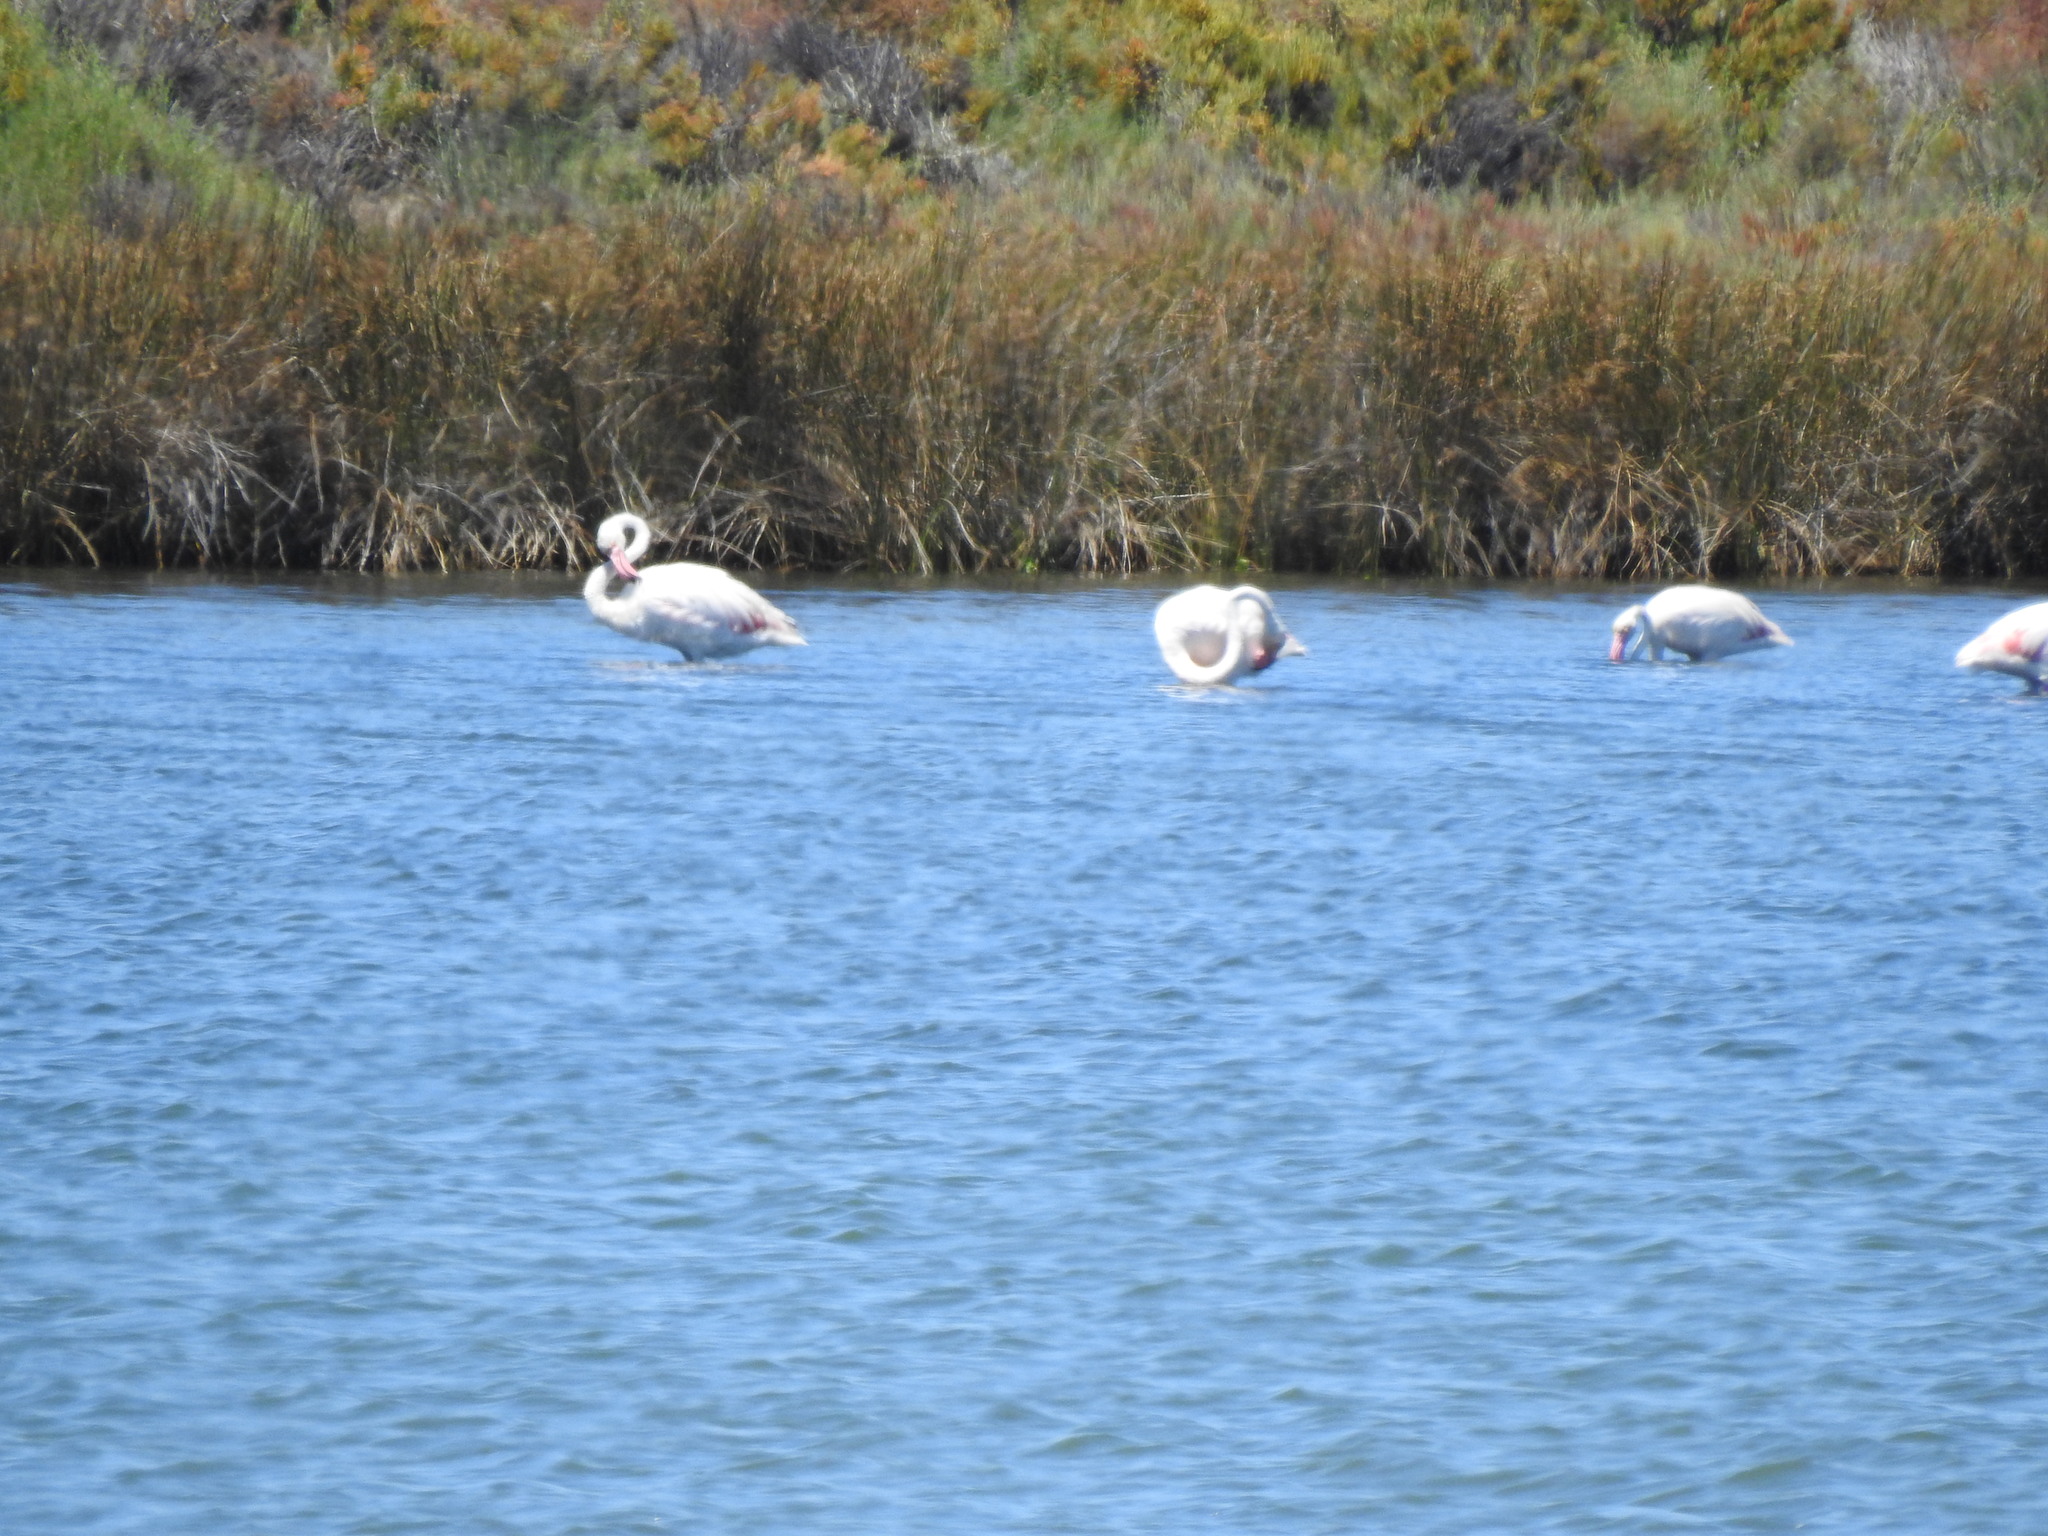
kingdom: Animalia
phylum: Chordata
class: Aves
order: Phoenicopteriformes
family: Phoenicopteridae
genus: Phoenicopterus
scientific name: Phoenicopterus roseus
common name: Greater flamingo
